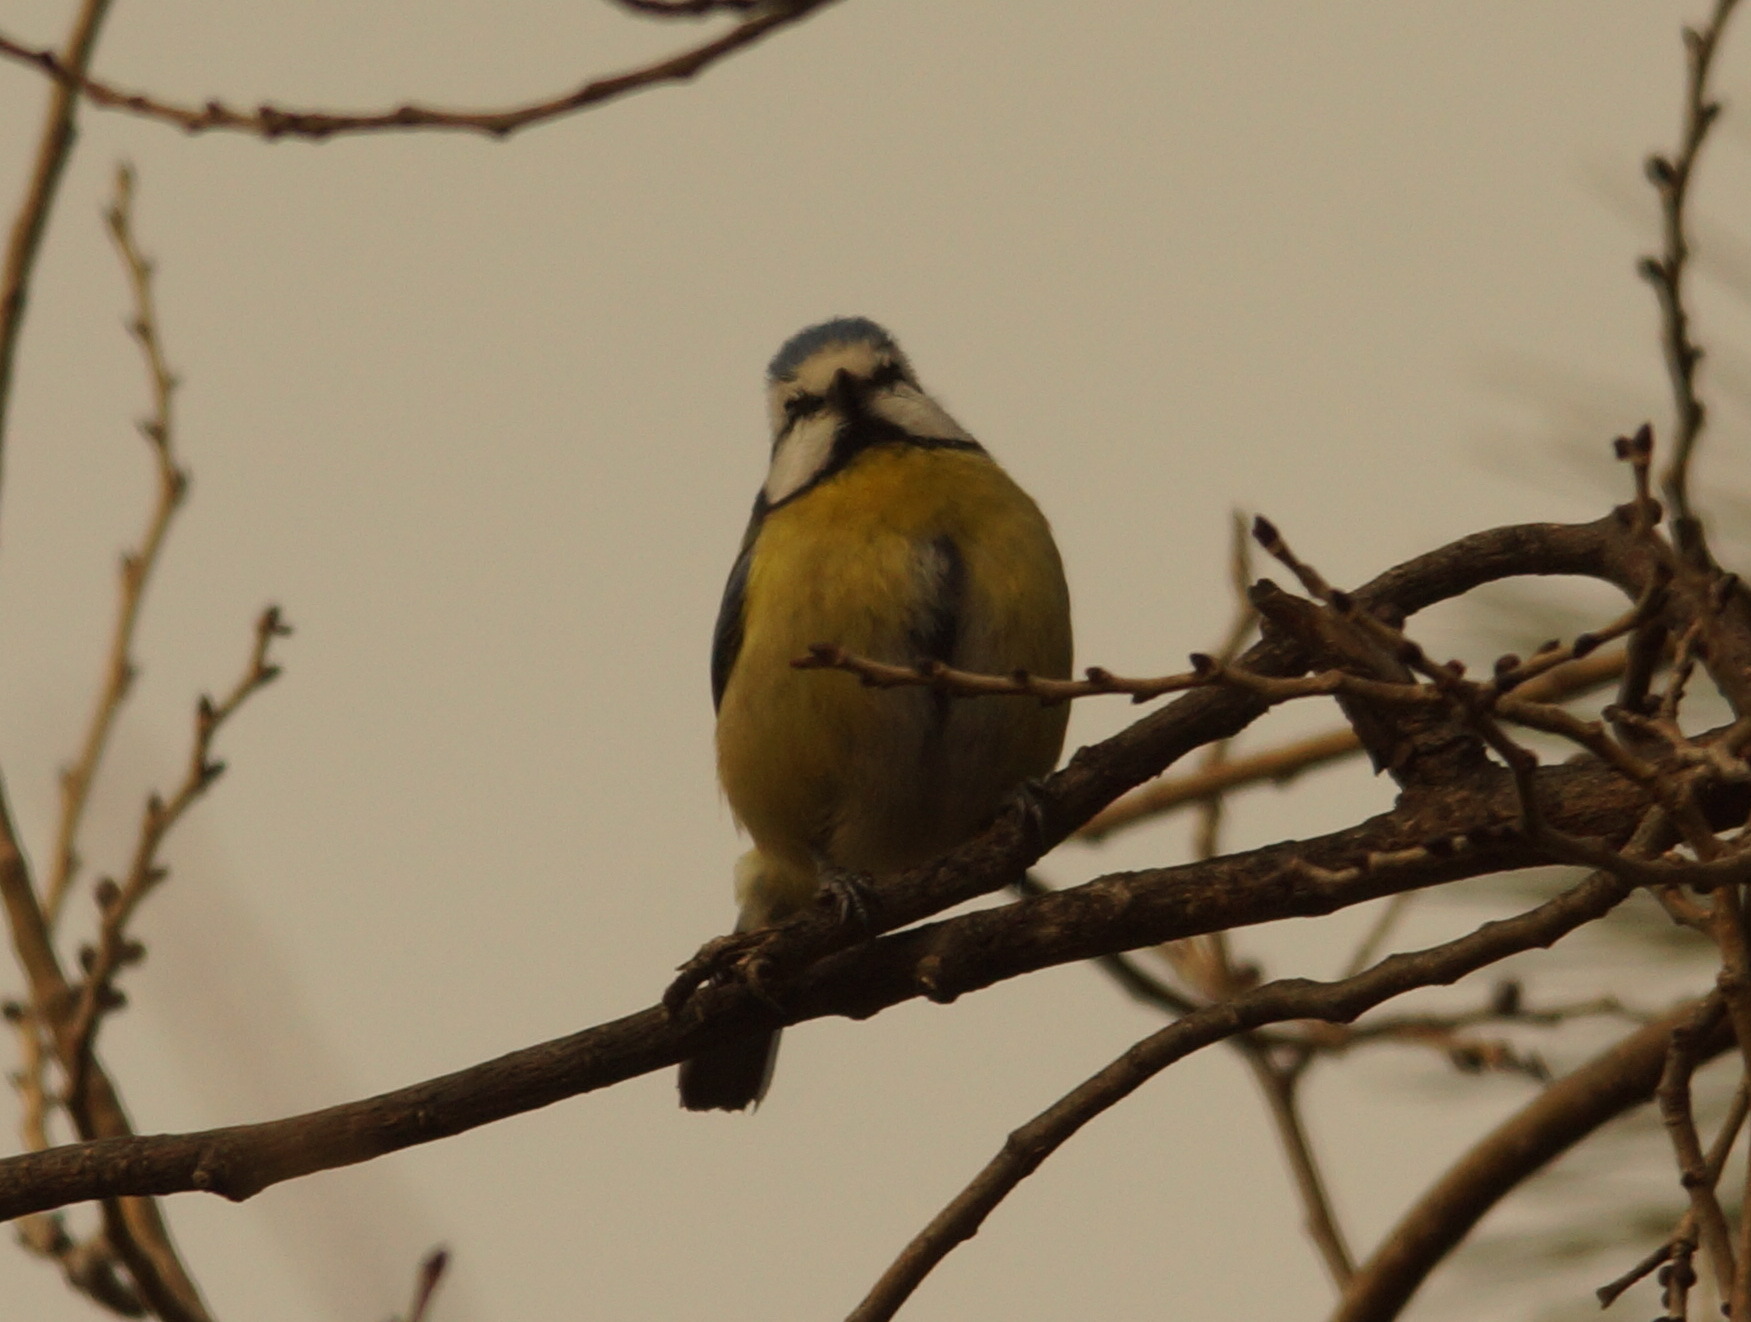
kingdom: Animalia
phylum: Chordata
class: Aves
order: Passeriformes
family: Paridae
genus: Cyanistes
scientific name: Cyanistes caeruleus
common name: Eurasian blue tit
